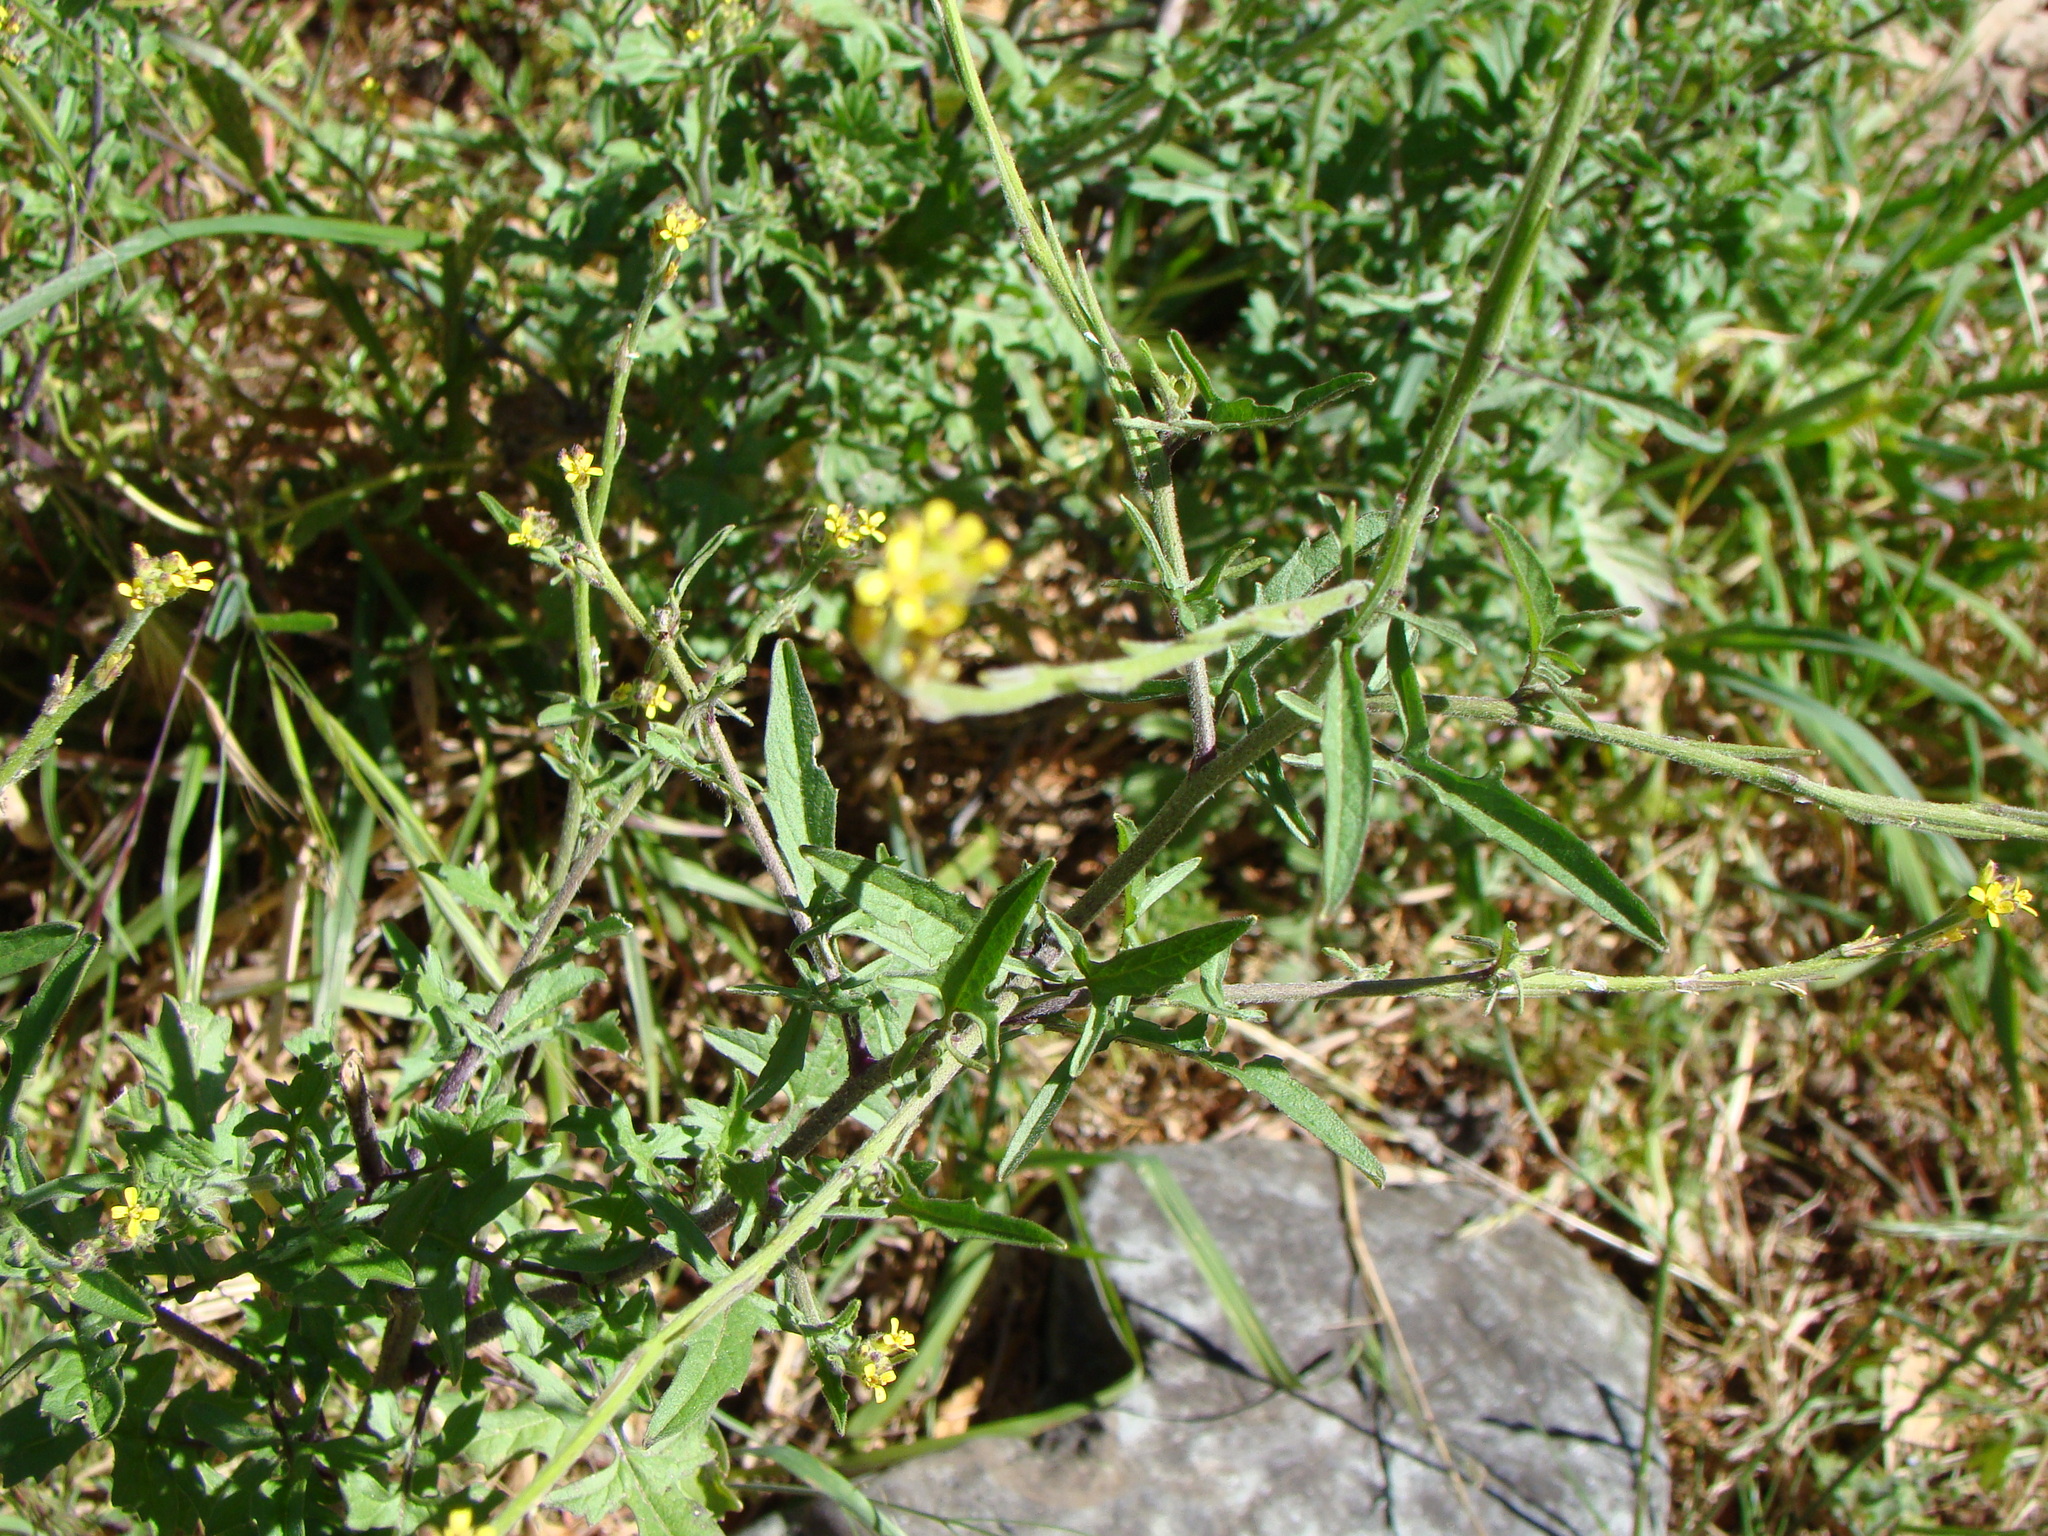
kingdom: Plantae
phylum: Tracheophyta
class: Magnoliopsida
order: Brassicales
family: Brassicaceae
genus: Sisymbrium
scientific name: Sisymbrium officinale
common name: Hedge mustard
